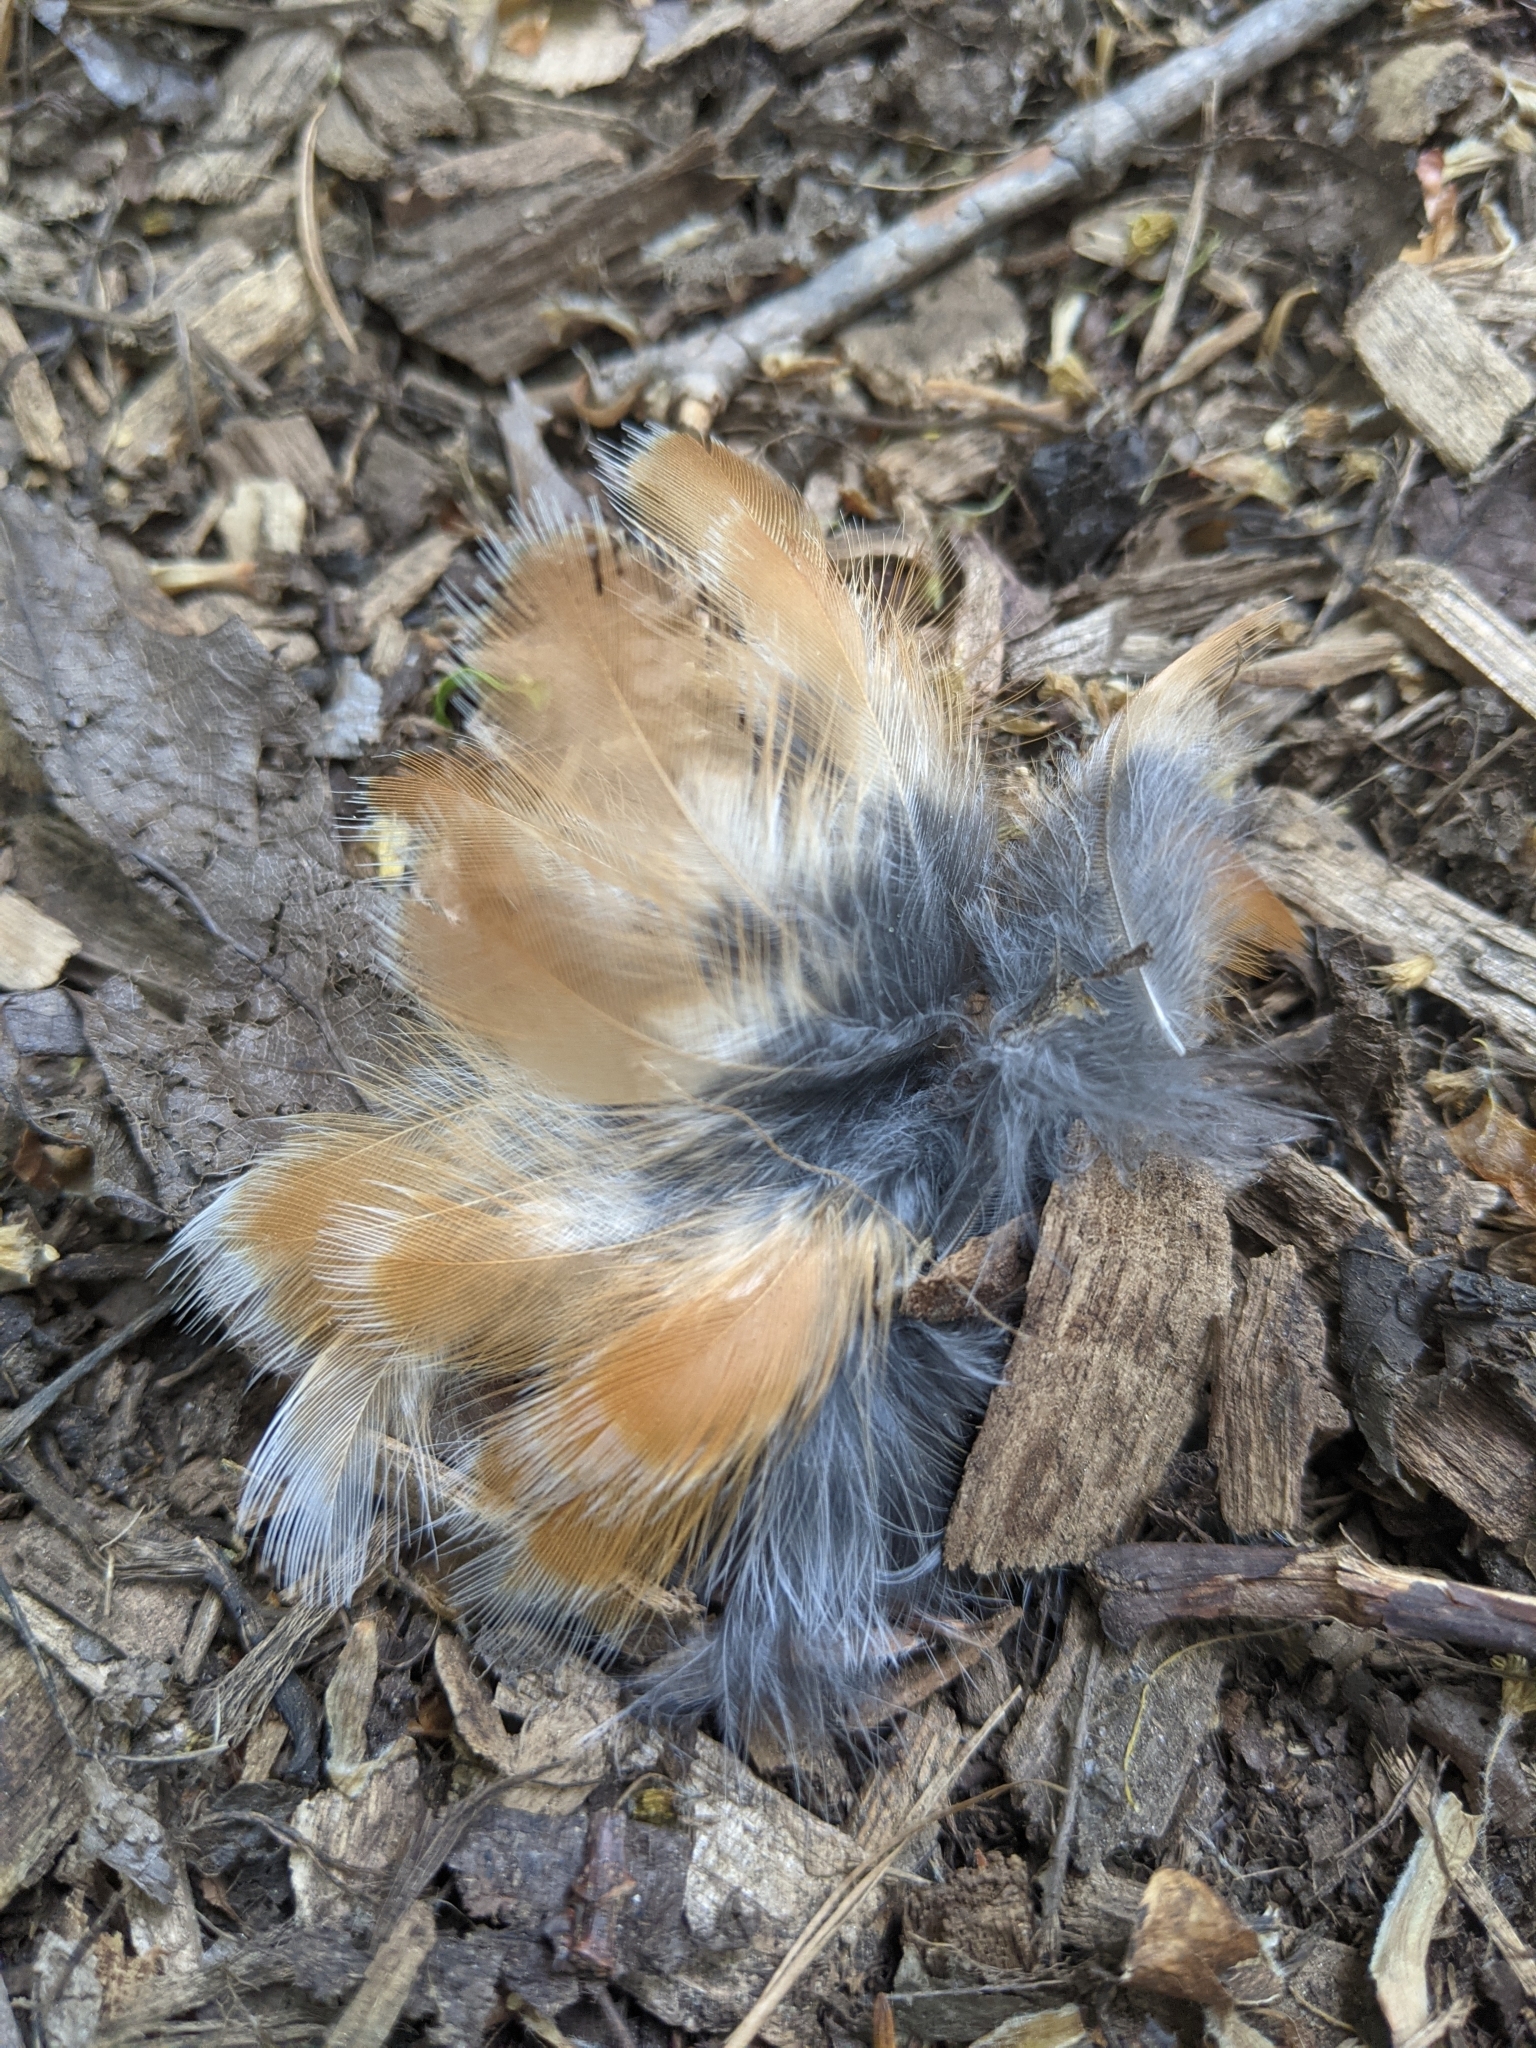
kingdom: Animalia
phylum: Chordata
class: Aves
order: Passeriformes
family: Turdidae
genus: Turdus
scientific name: Turdus migratorius
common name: American robin
